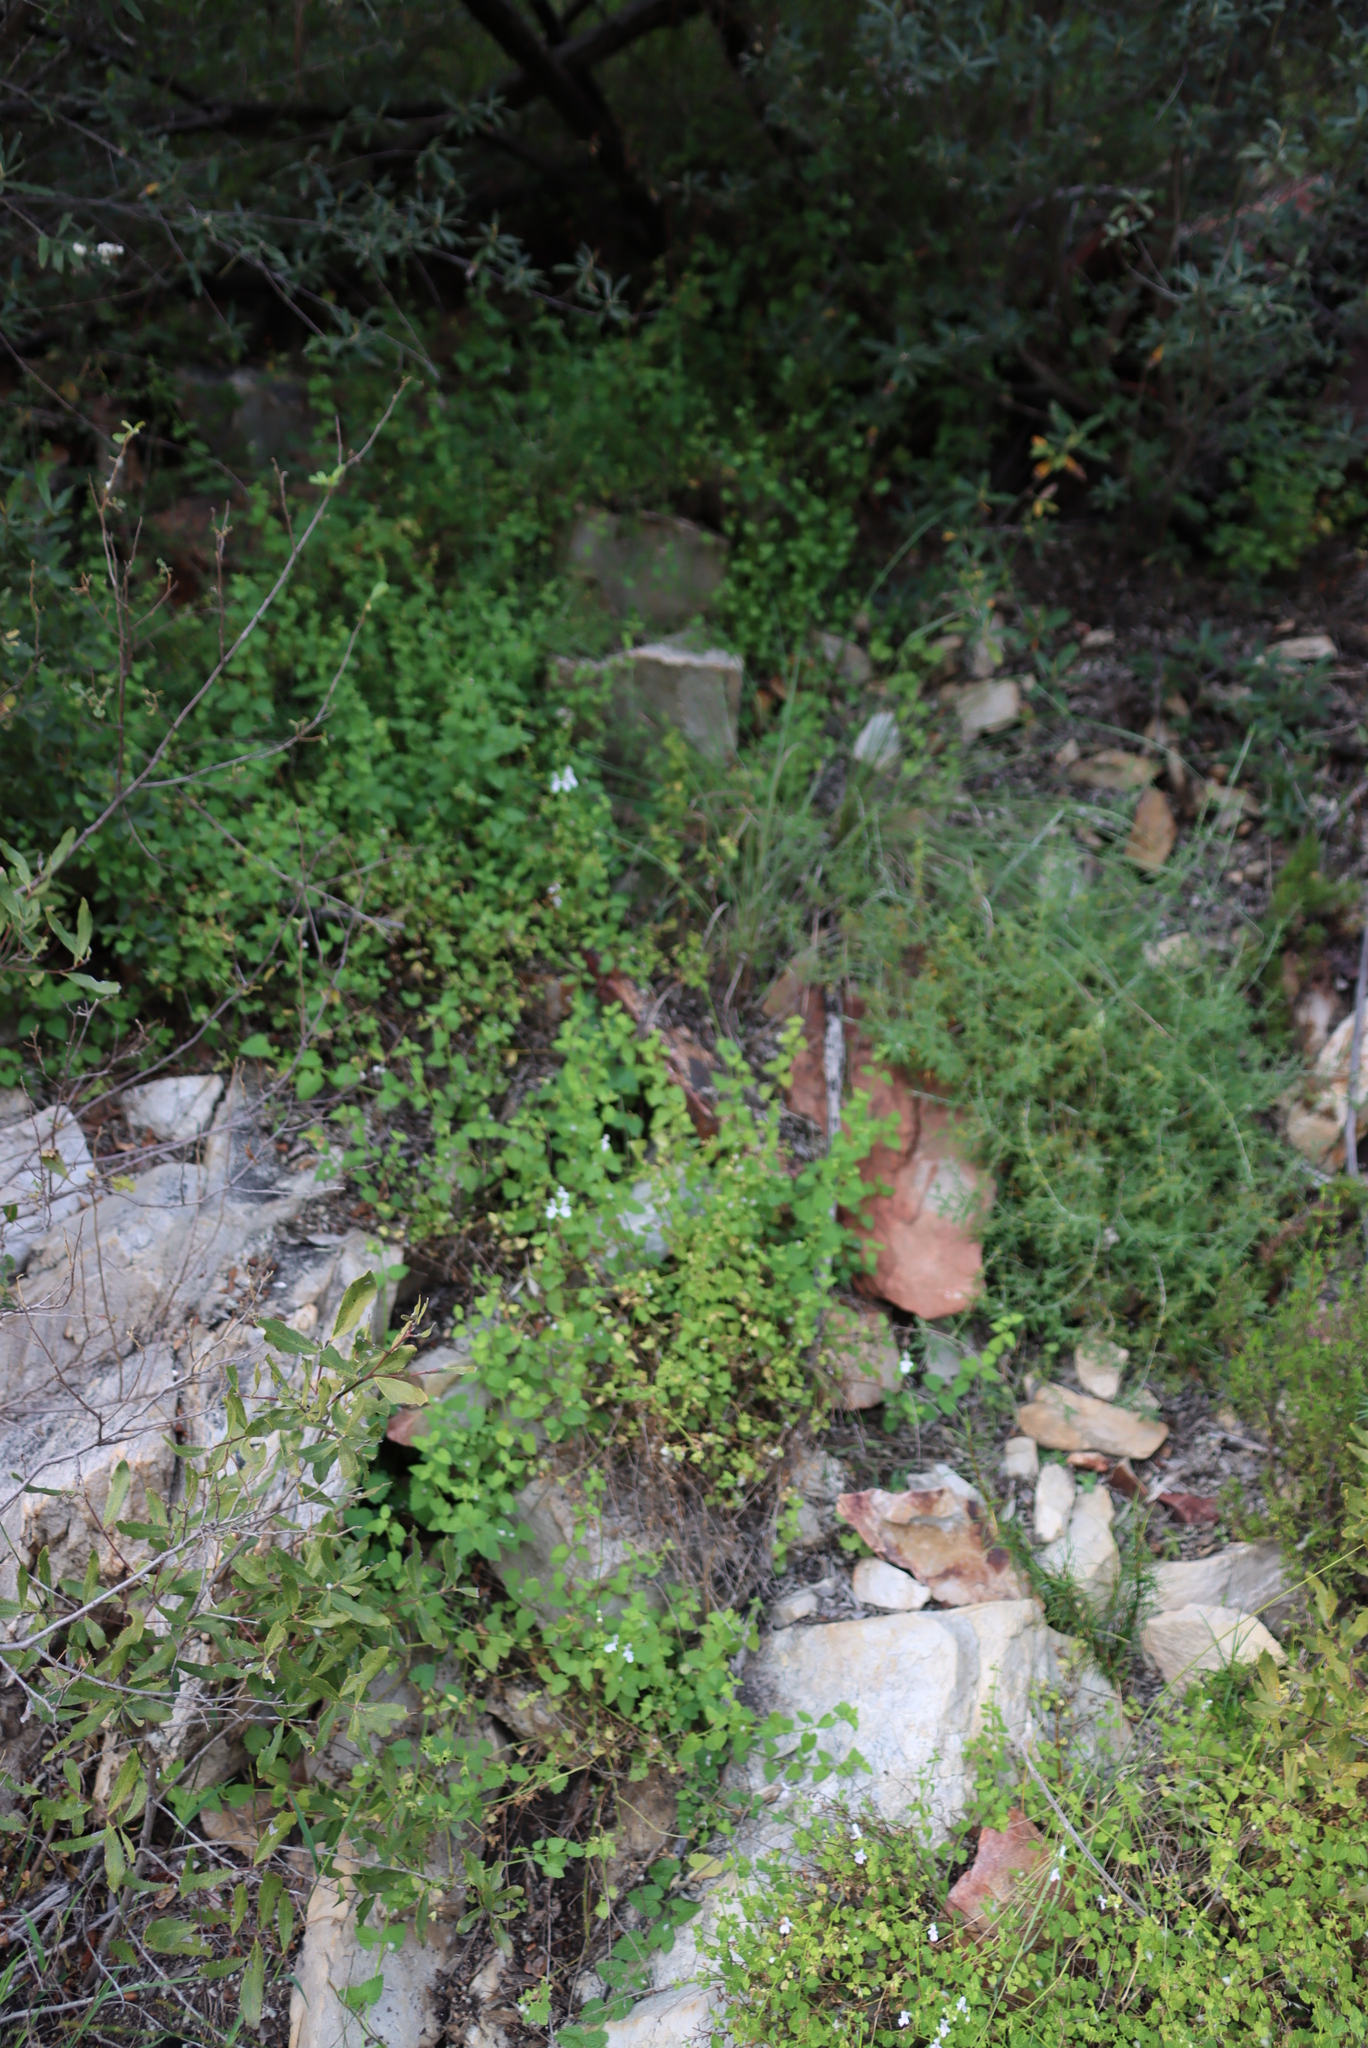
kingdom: Plantae
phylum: Tracheophyta
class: Magnoliopsida
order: Lamiales
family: Lamiaceae
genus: Stachys
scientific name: Stachys aethiopica
